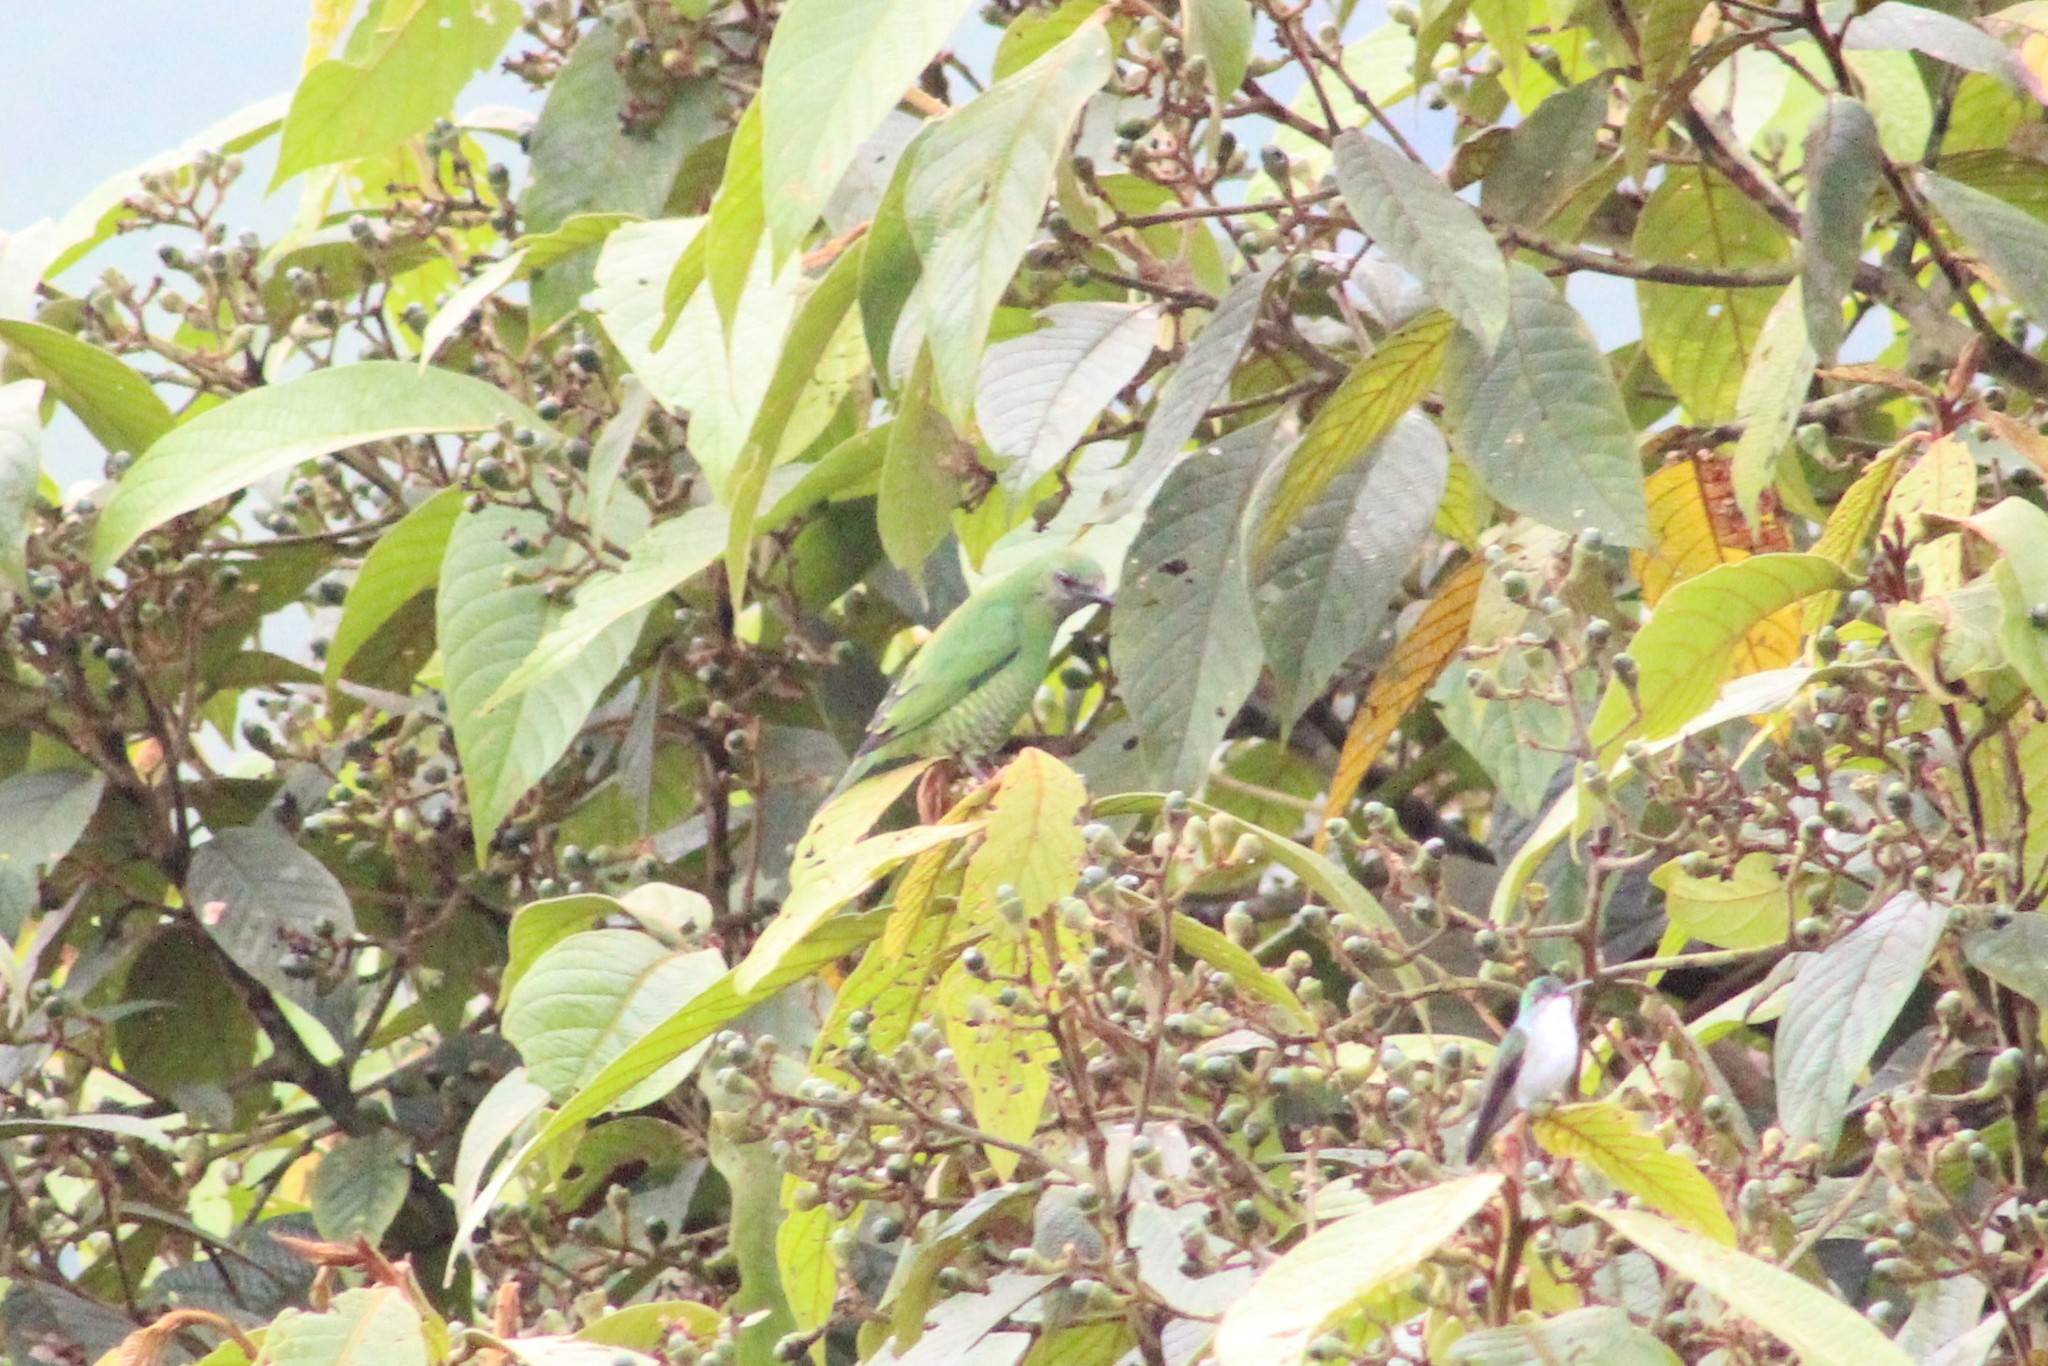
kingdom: Animalia
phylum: Chordata
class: Aves
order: Passeriformes
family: Thraupidae
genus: Tersina
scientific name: Tersina viridis
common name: Swallow tanager
